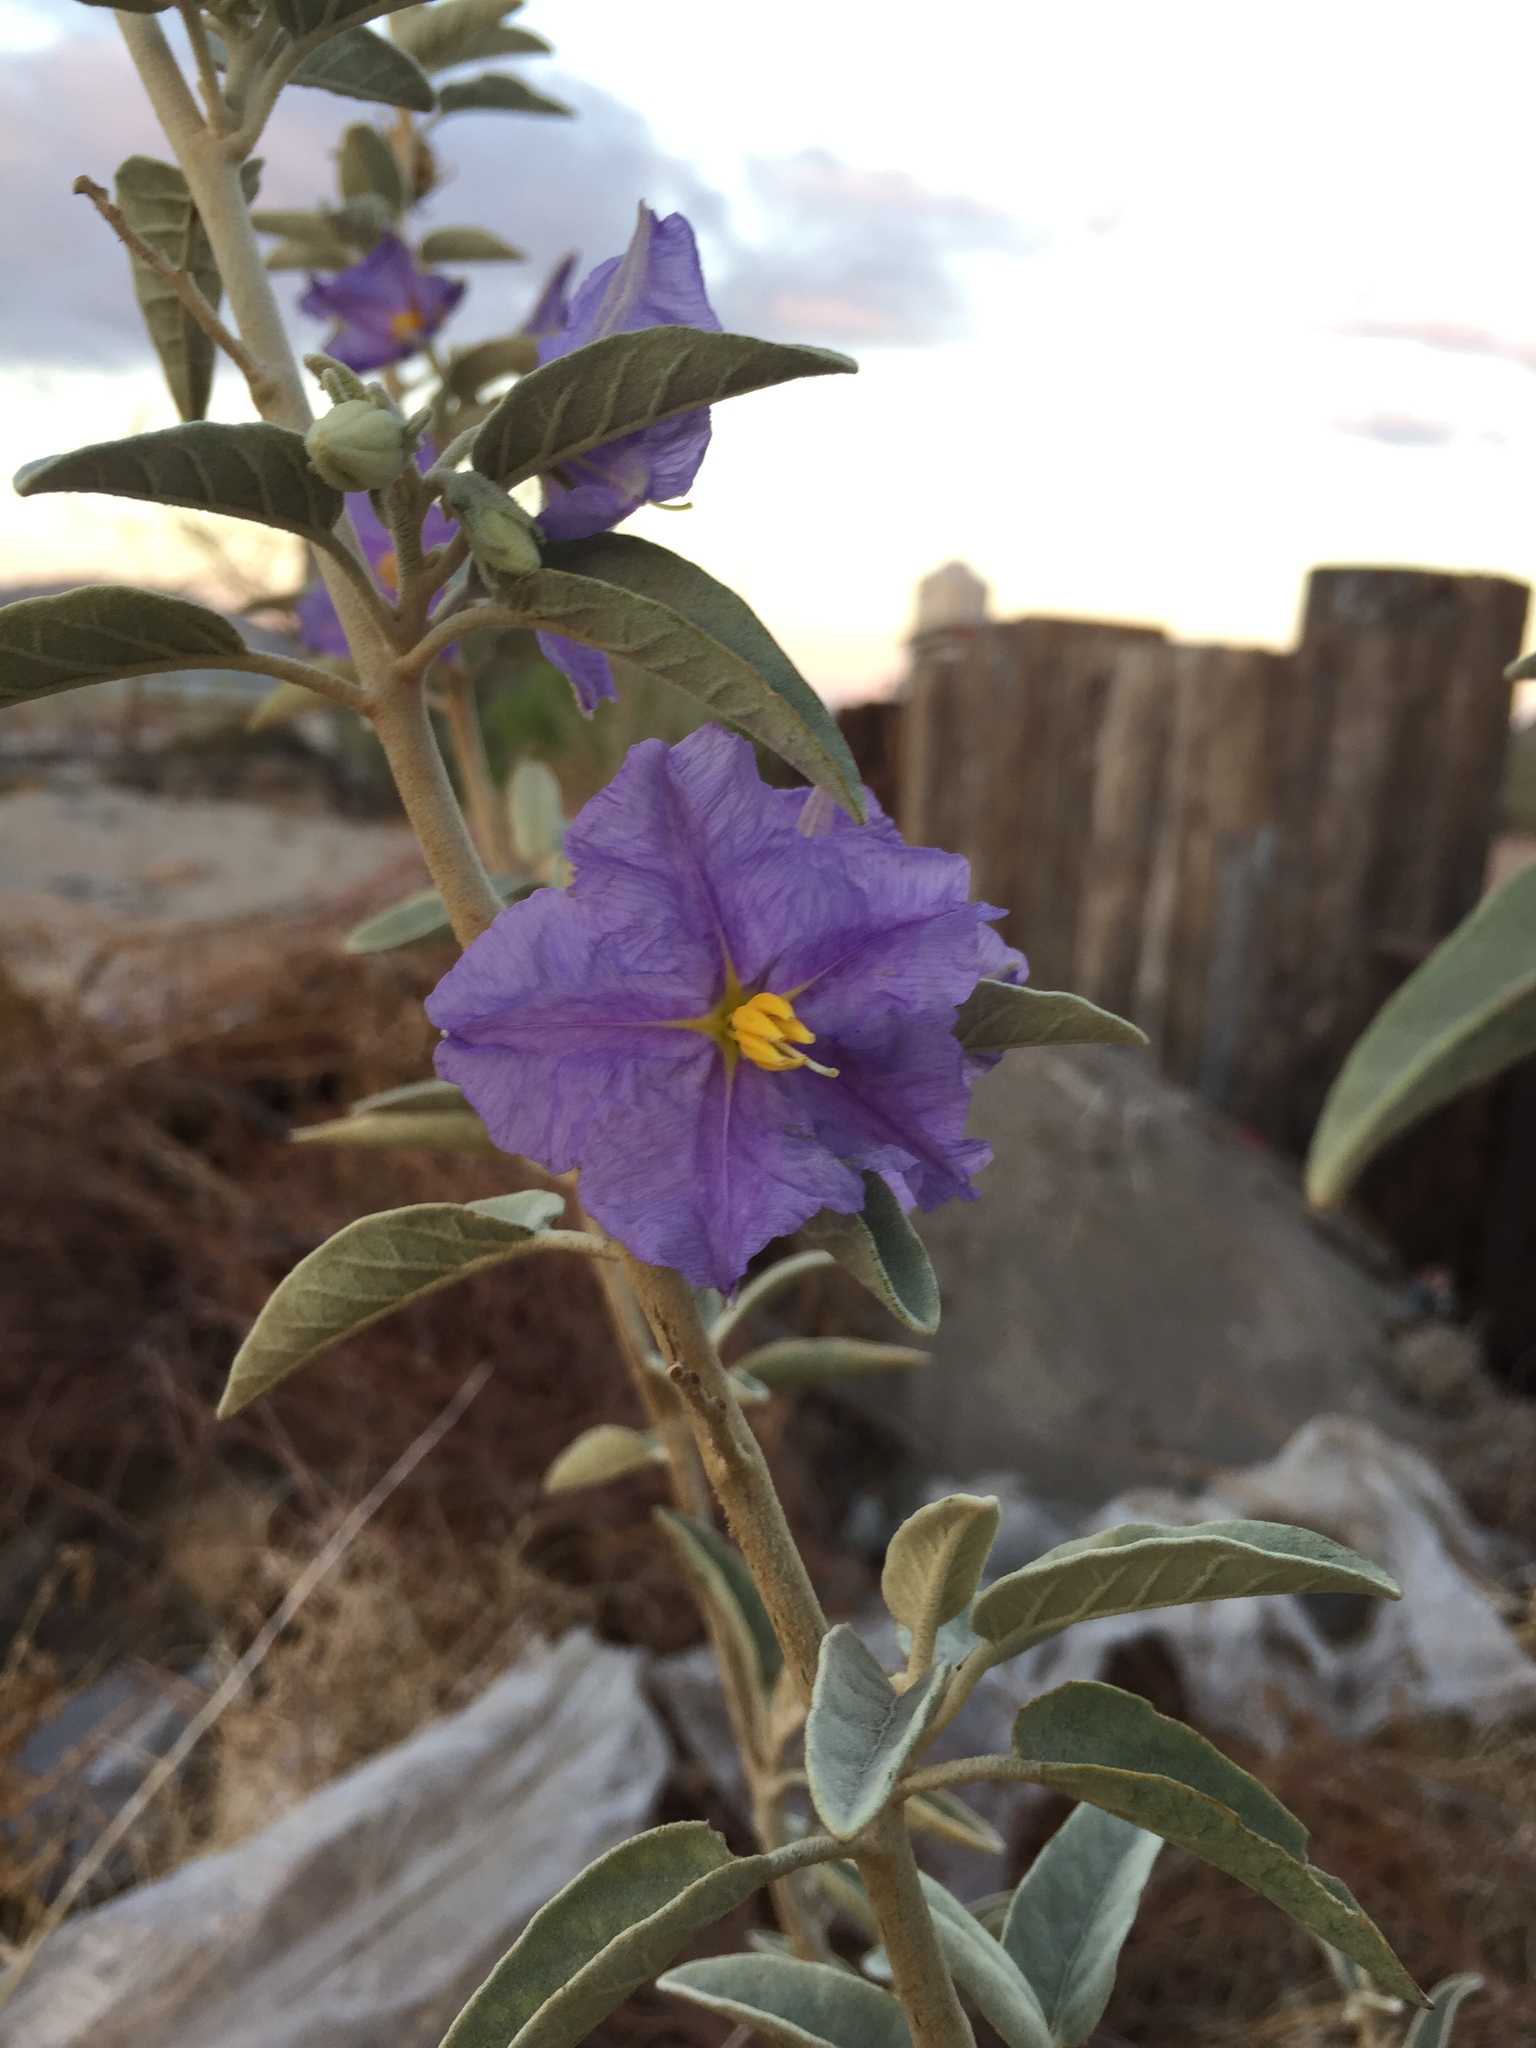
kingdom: Plantae
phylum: Tracheophyta
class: Magnoliopsida
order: Solanales
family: Solanaceae
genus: Solanum
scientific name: Solanum hindsianum
